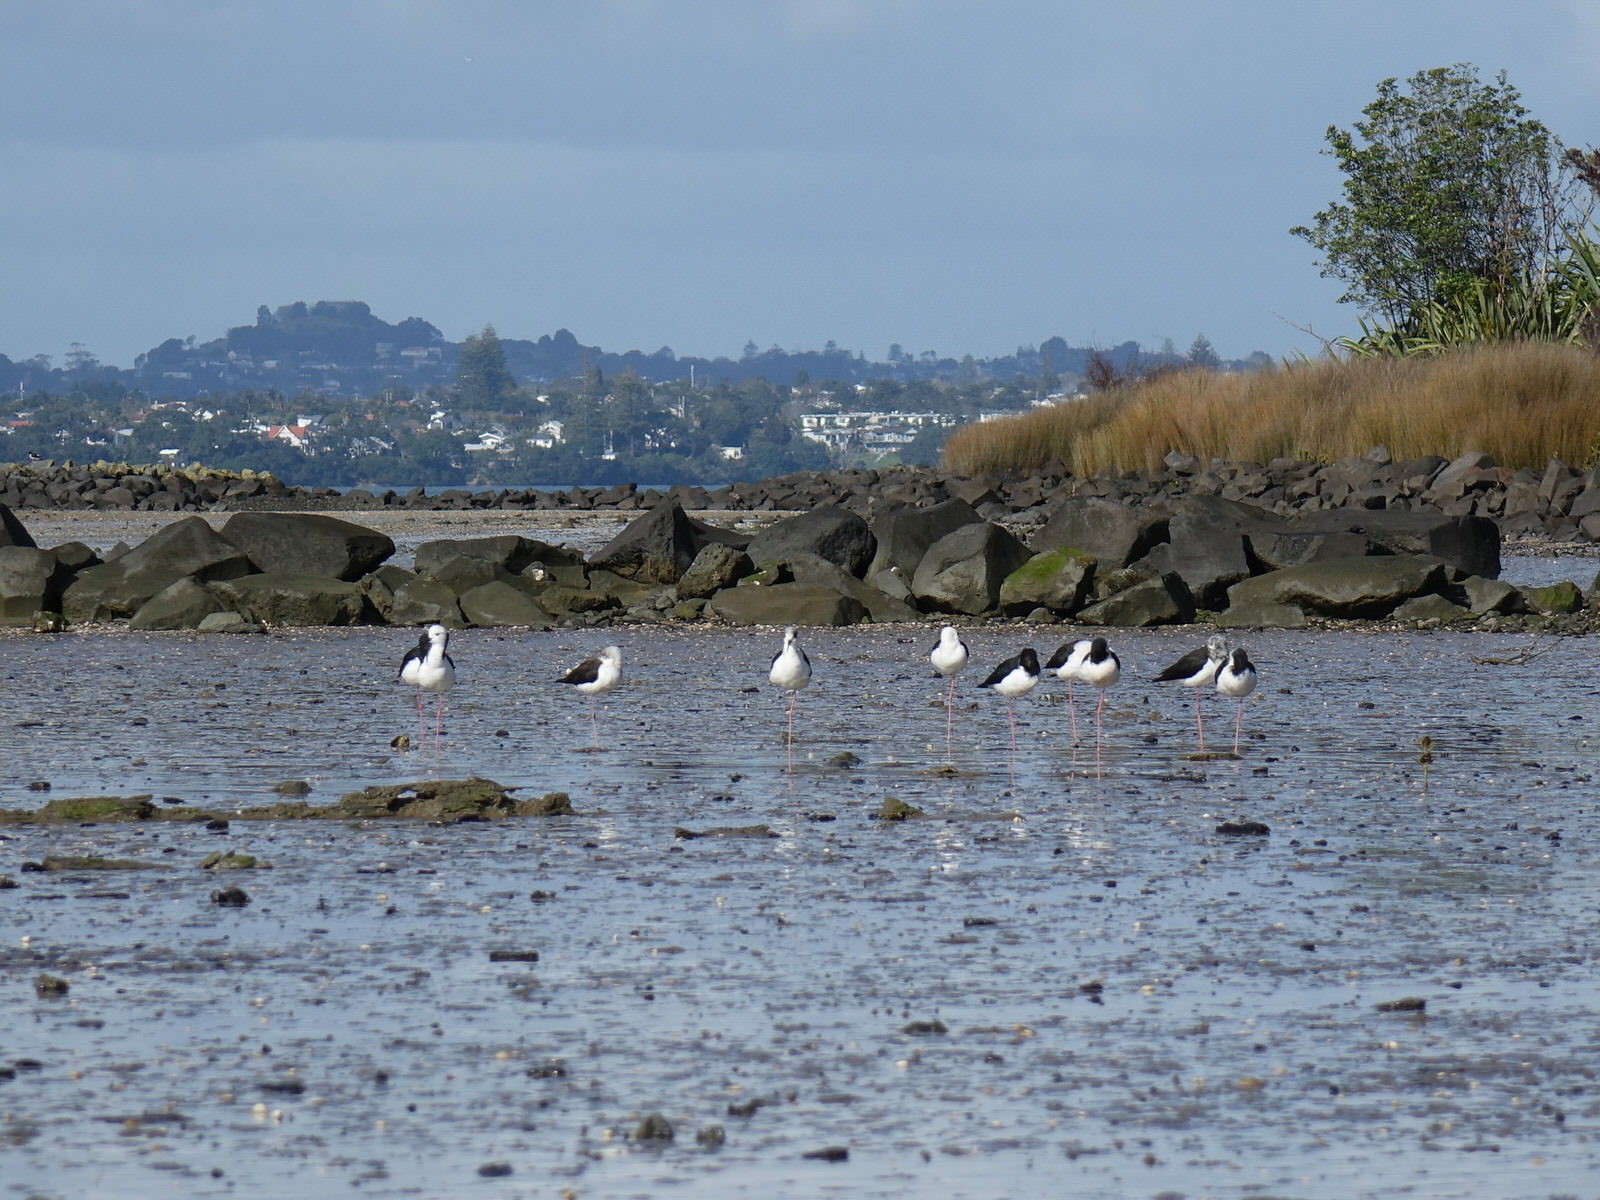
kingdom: Animalia
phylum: Chordata
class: Aves
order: Charadriiformes
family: Recurvirostridae
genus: Himantopus
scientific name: Himantopus leucocephalus
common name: White-headed stilt
